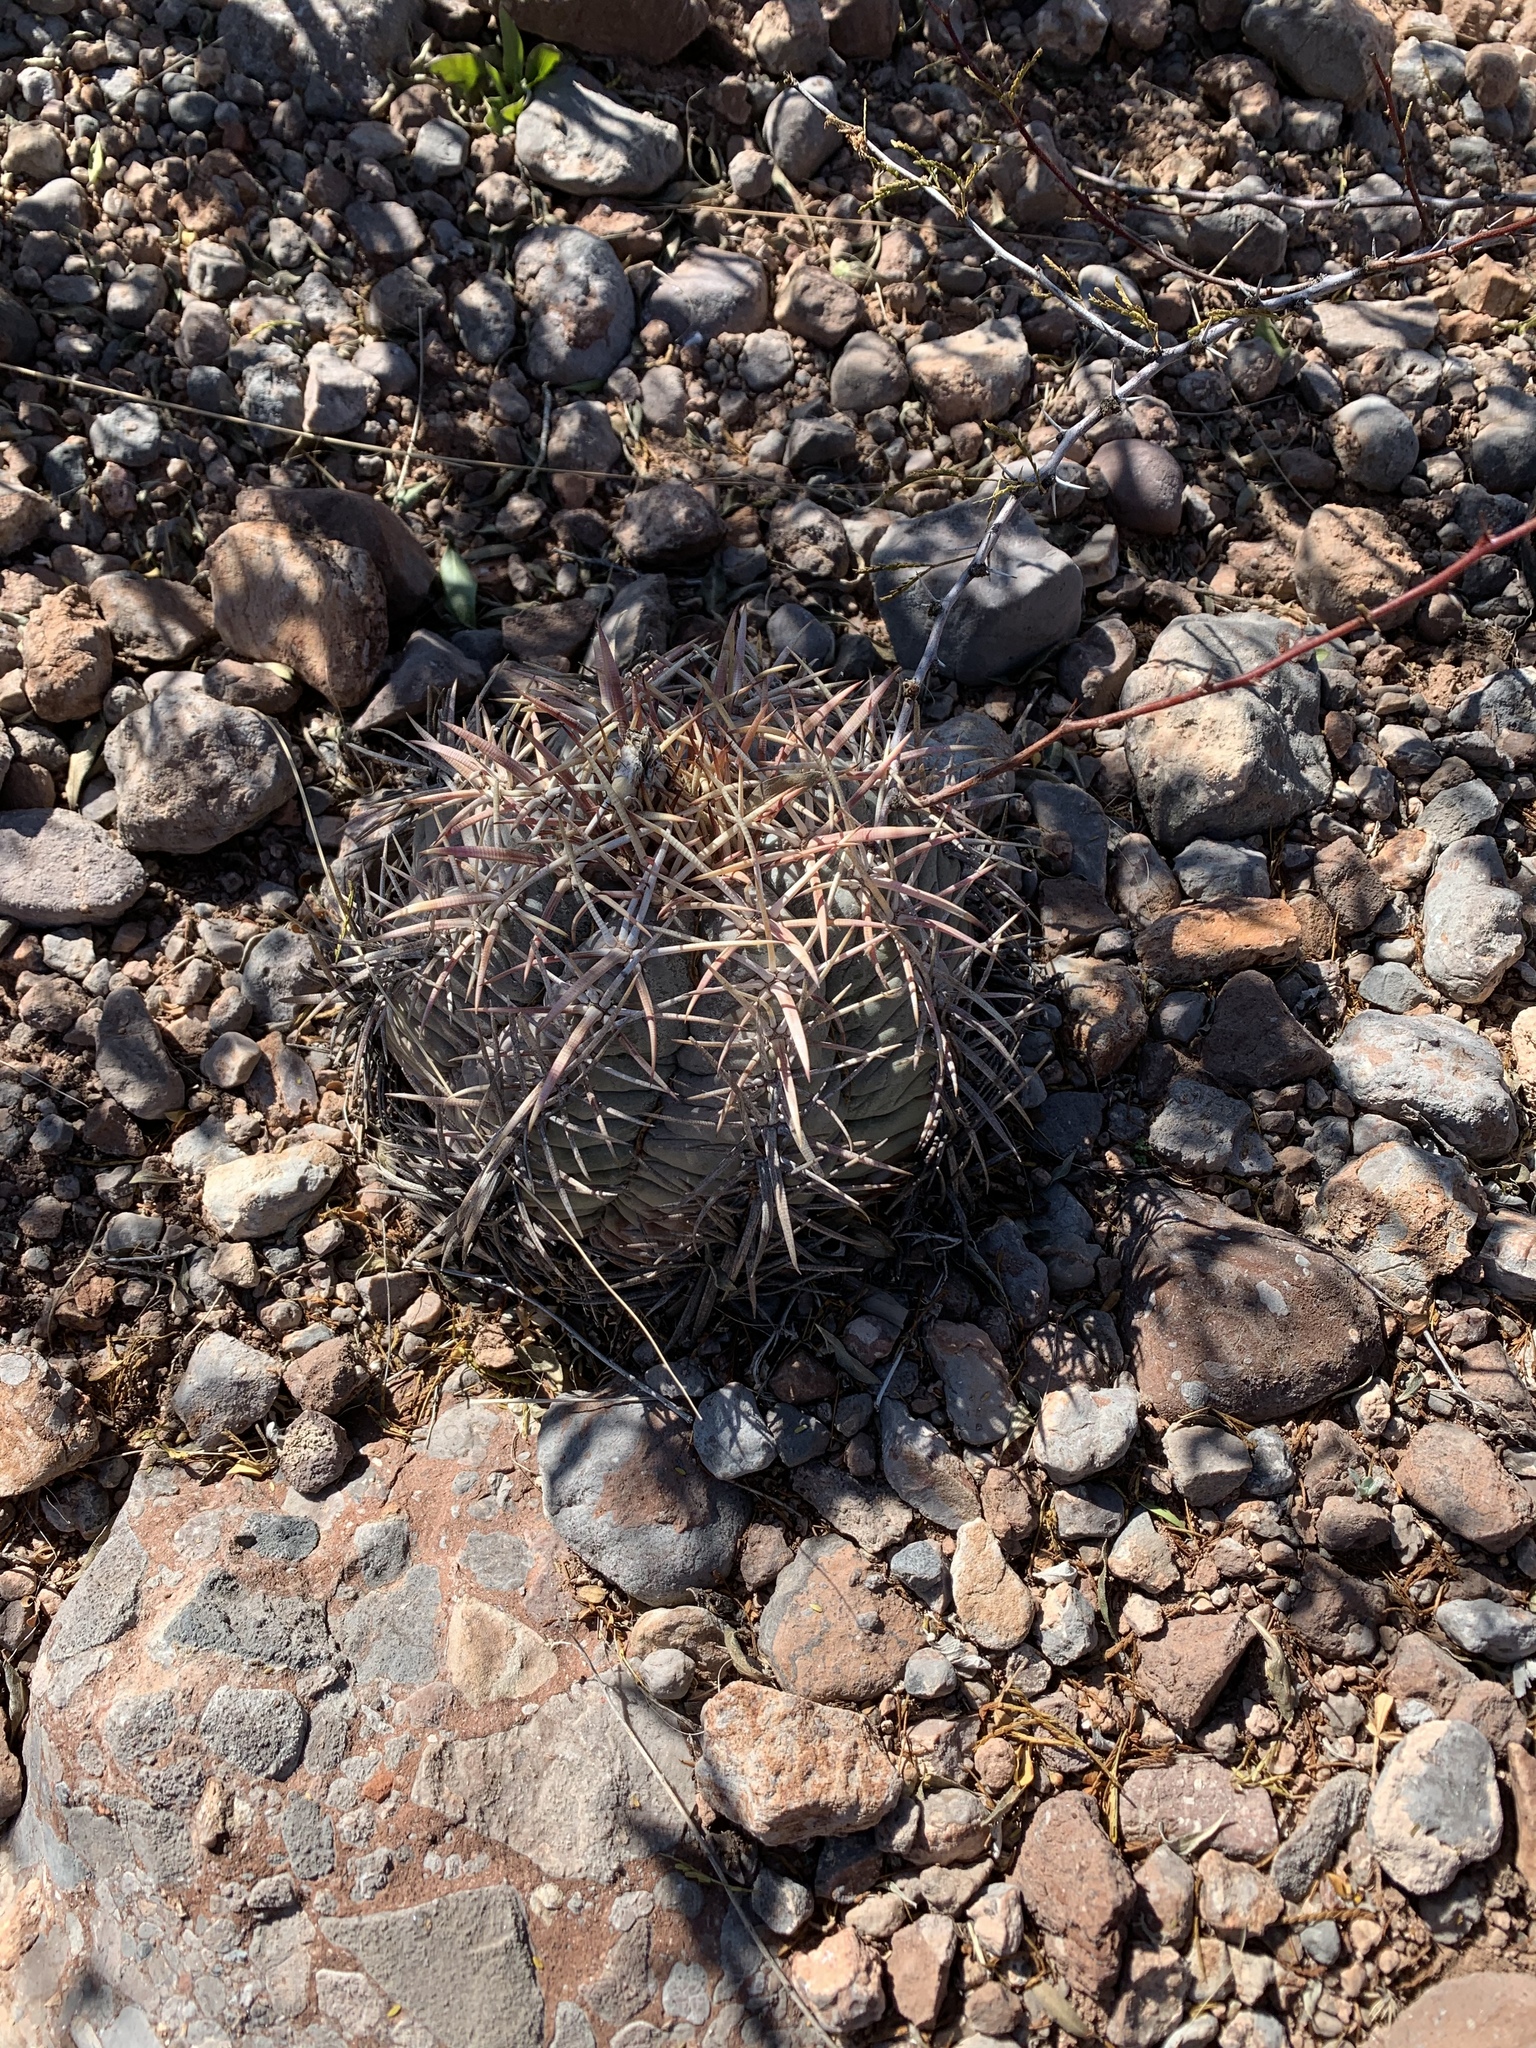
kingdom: Plantae
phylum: Tracheophyta
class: Magnoliopsida
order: Caryophyllales
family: Cactaceae
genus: Echinocactus
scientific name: Echinocactus horizonthalonius
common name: Devilshead
